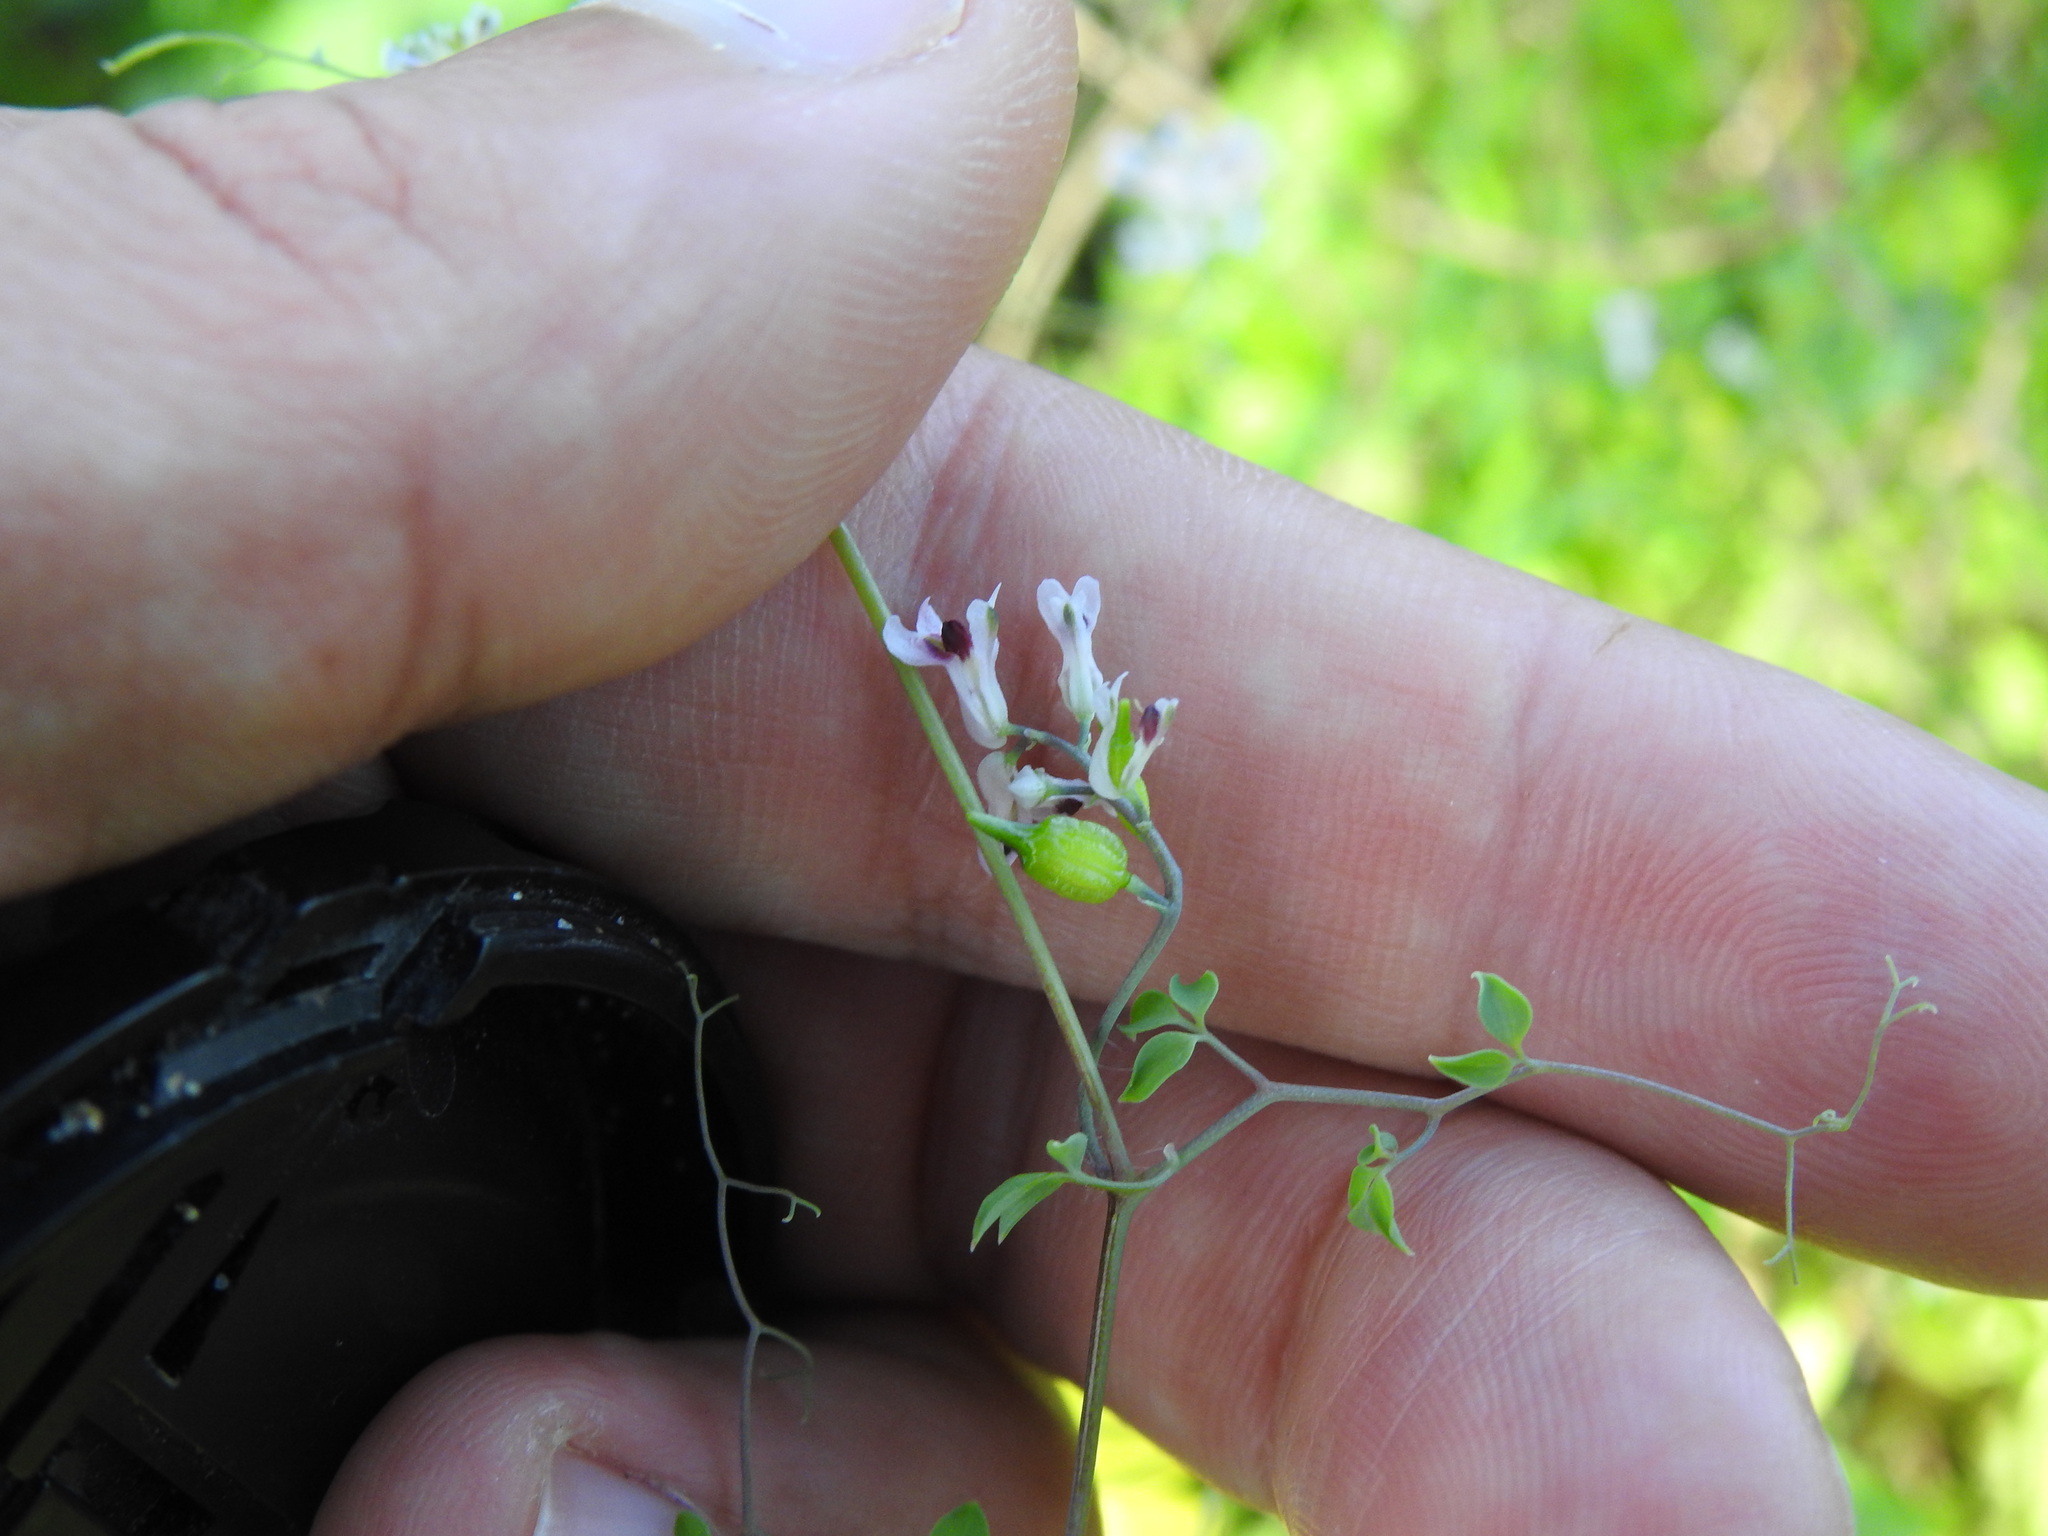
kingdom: Plantae
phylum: Tracheophyta
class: Magnoliopsida
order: Ranunculales
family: Papaveraceae
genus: Ceratocapnos
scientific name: Ceratocapnos heterocarpa
